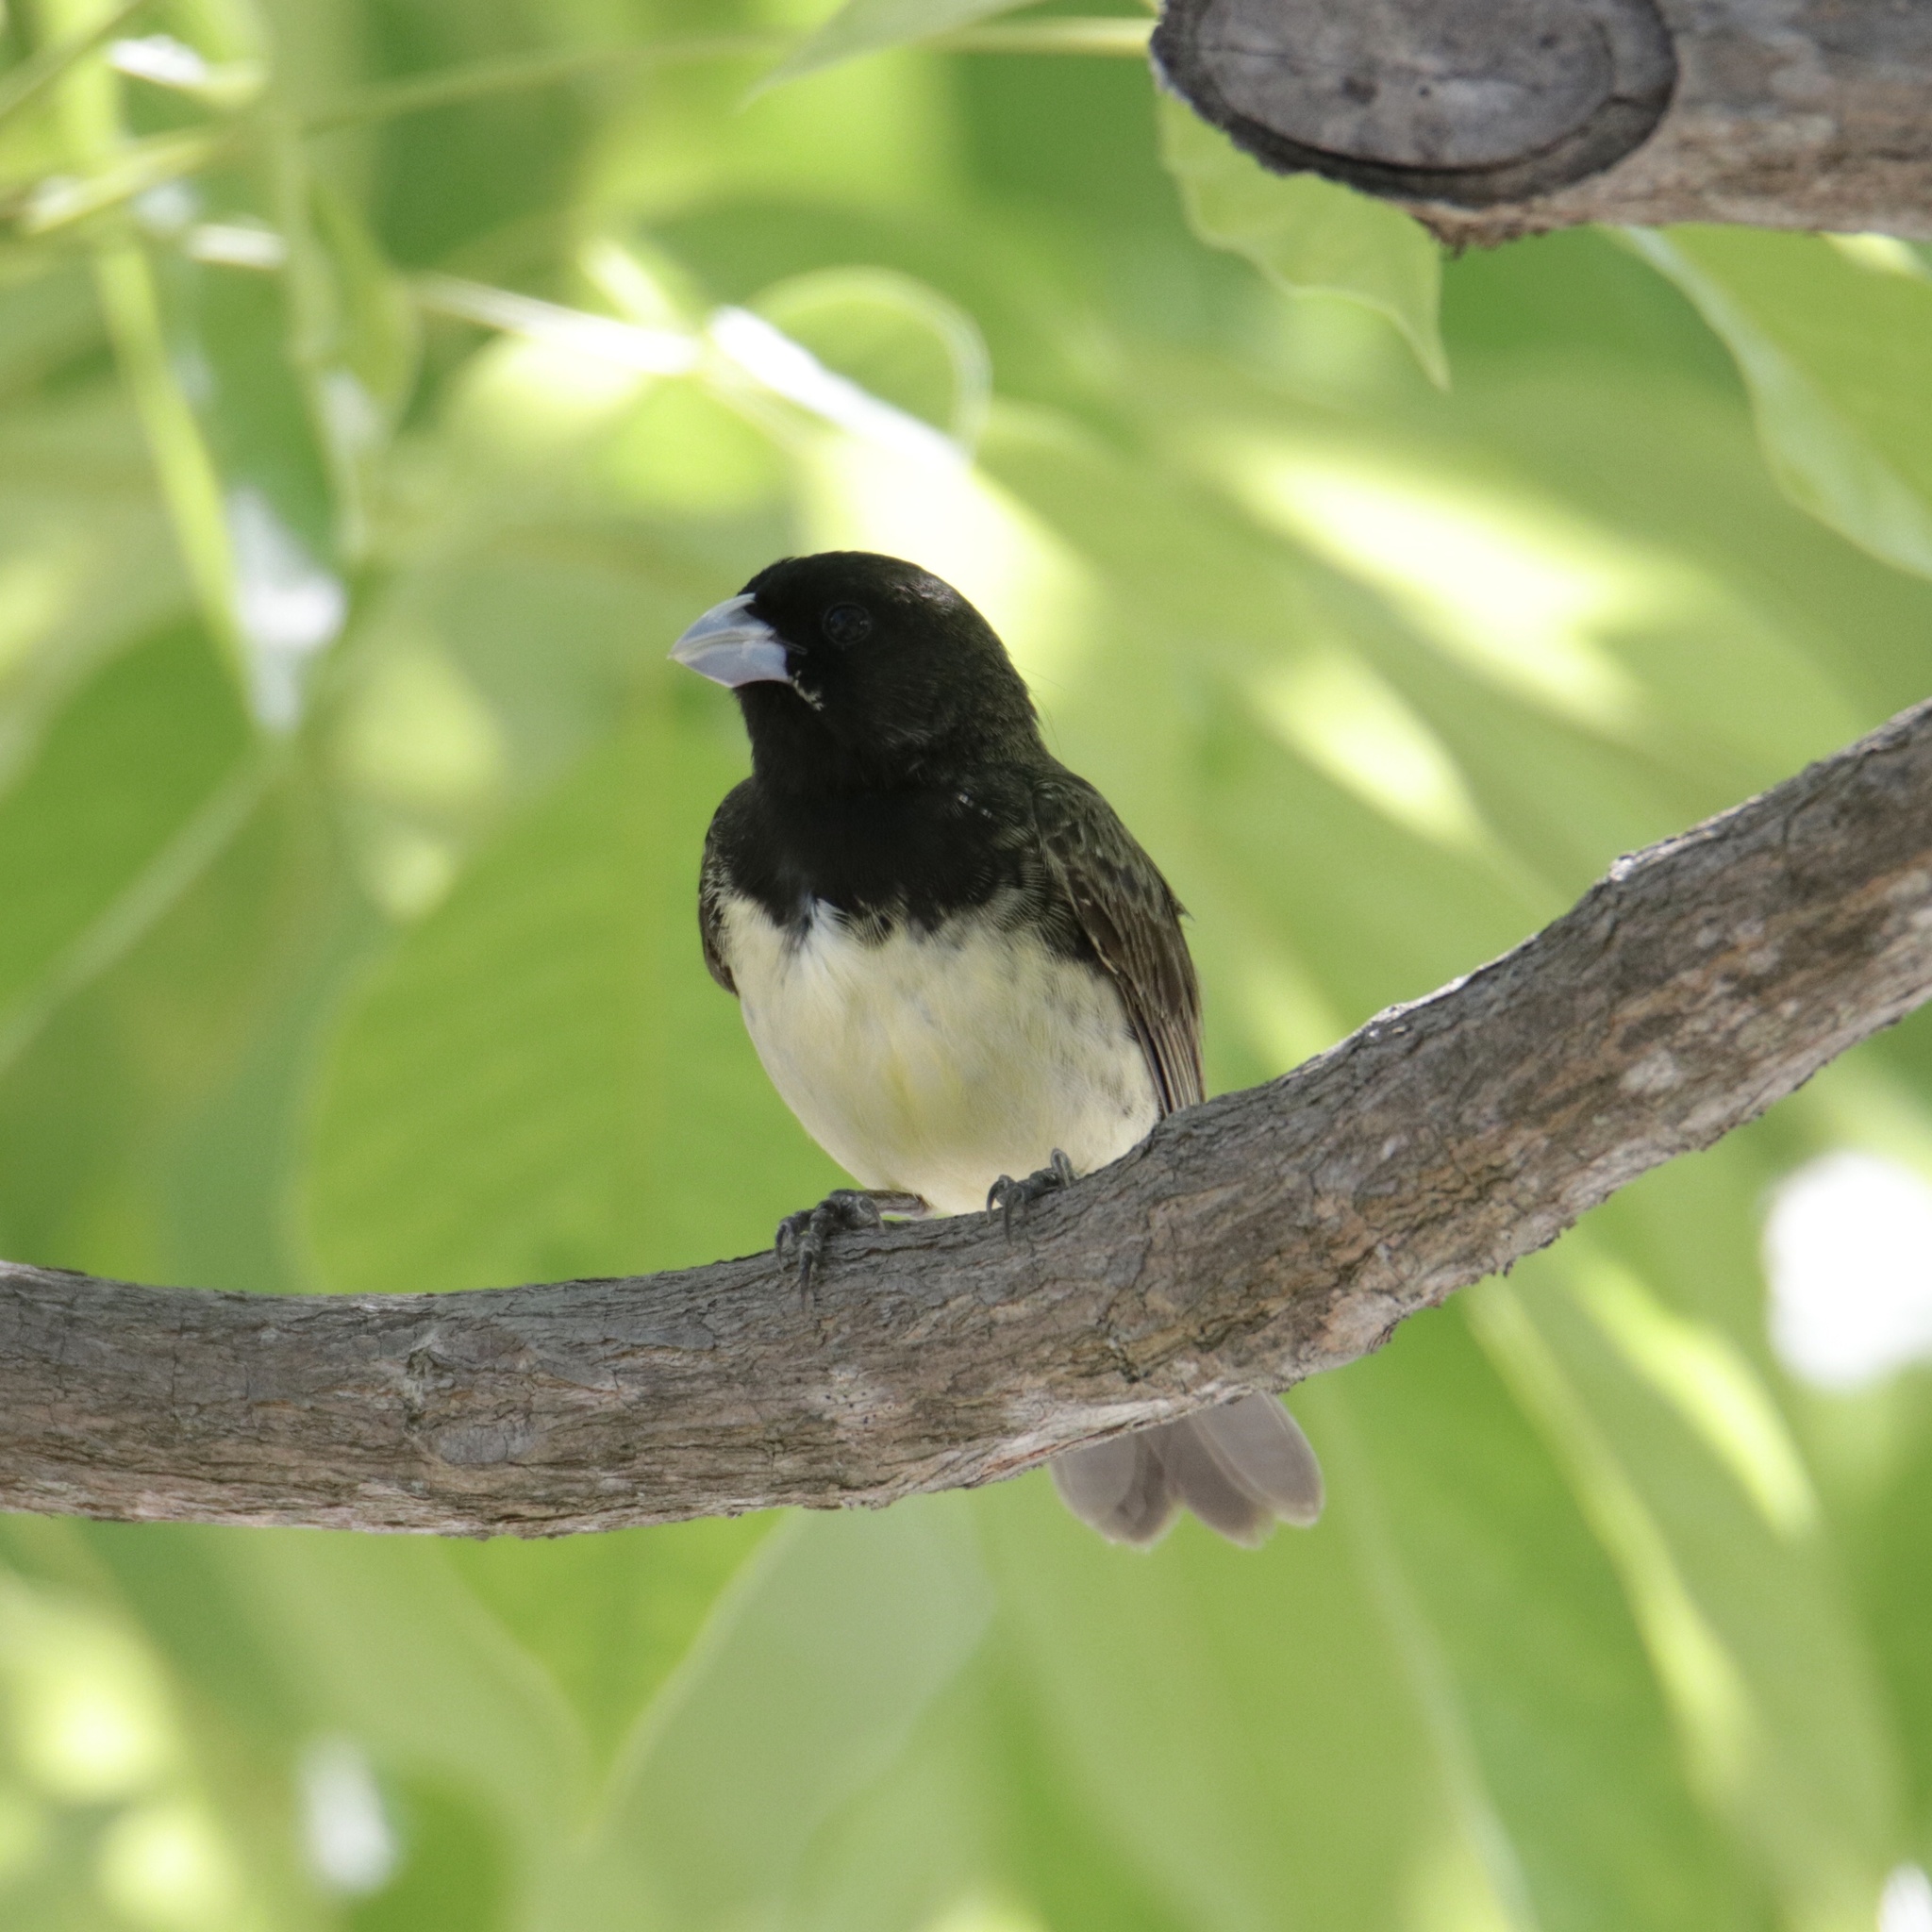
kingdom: Animalia
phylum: Chordata
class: Aves
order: Passeriformes
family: Thraupidae
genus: Sporophila
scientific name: Sporophila nigricollis
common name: Yellow-bellied seedeater
